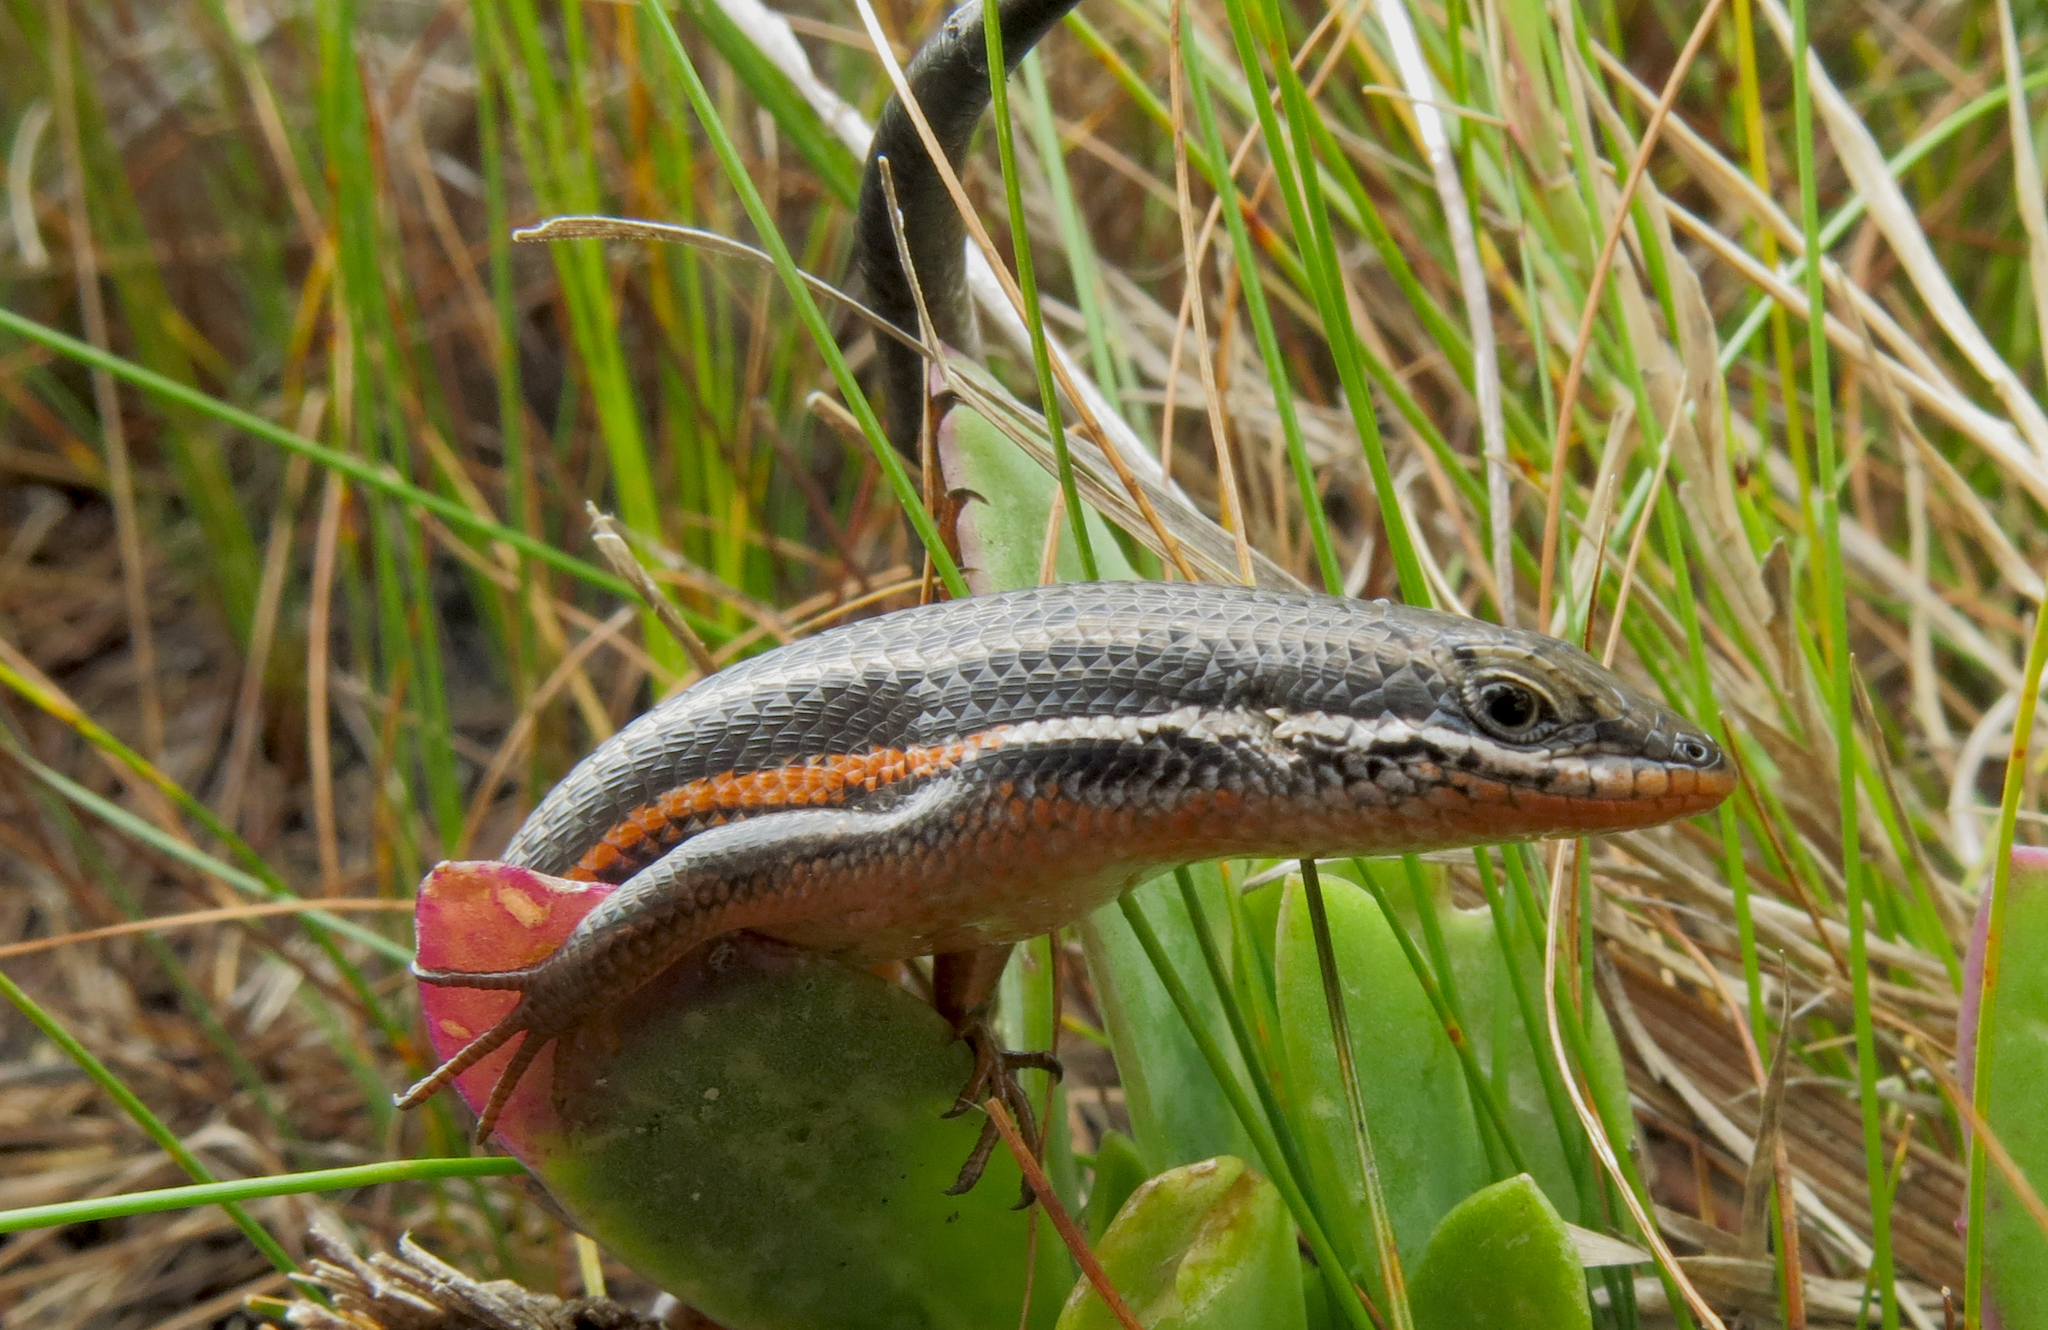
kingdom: Animalia
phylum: Chordata
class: Squamata
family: Scincidae
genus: Trachylepis
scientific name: Trachylepis homalocephala
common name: Red-sided skink
